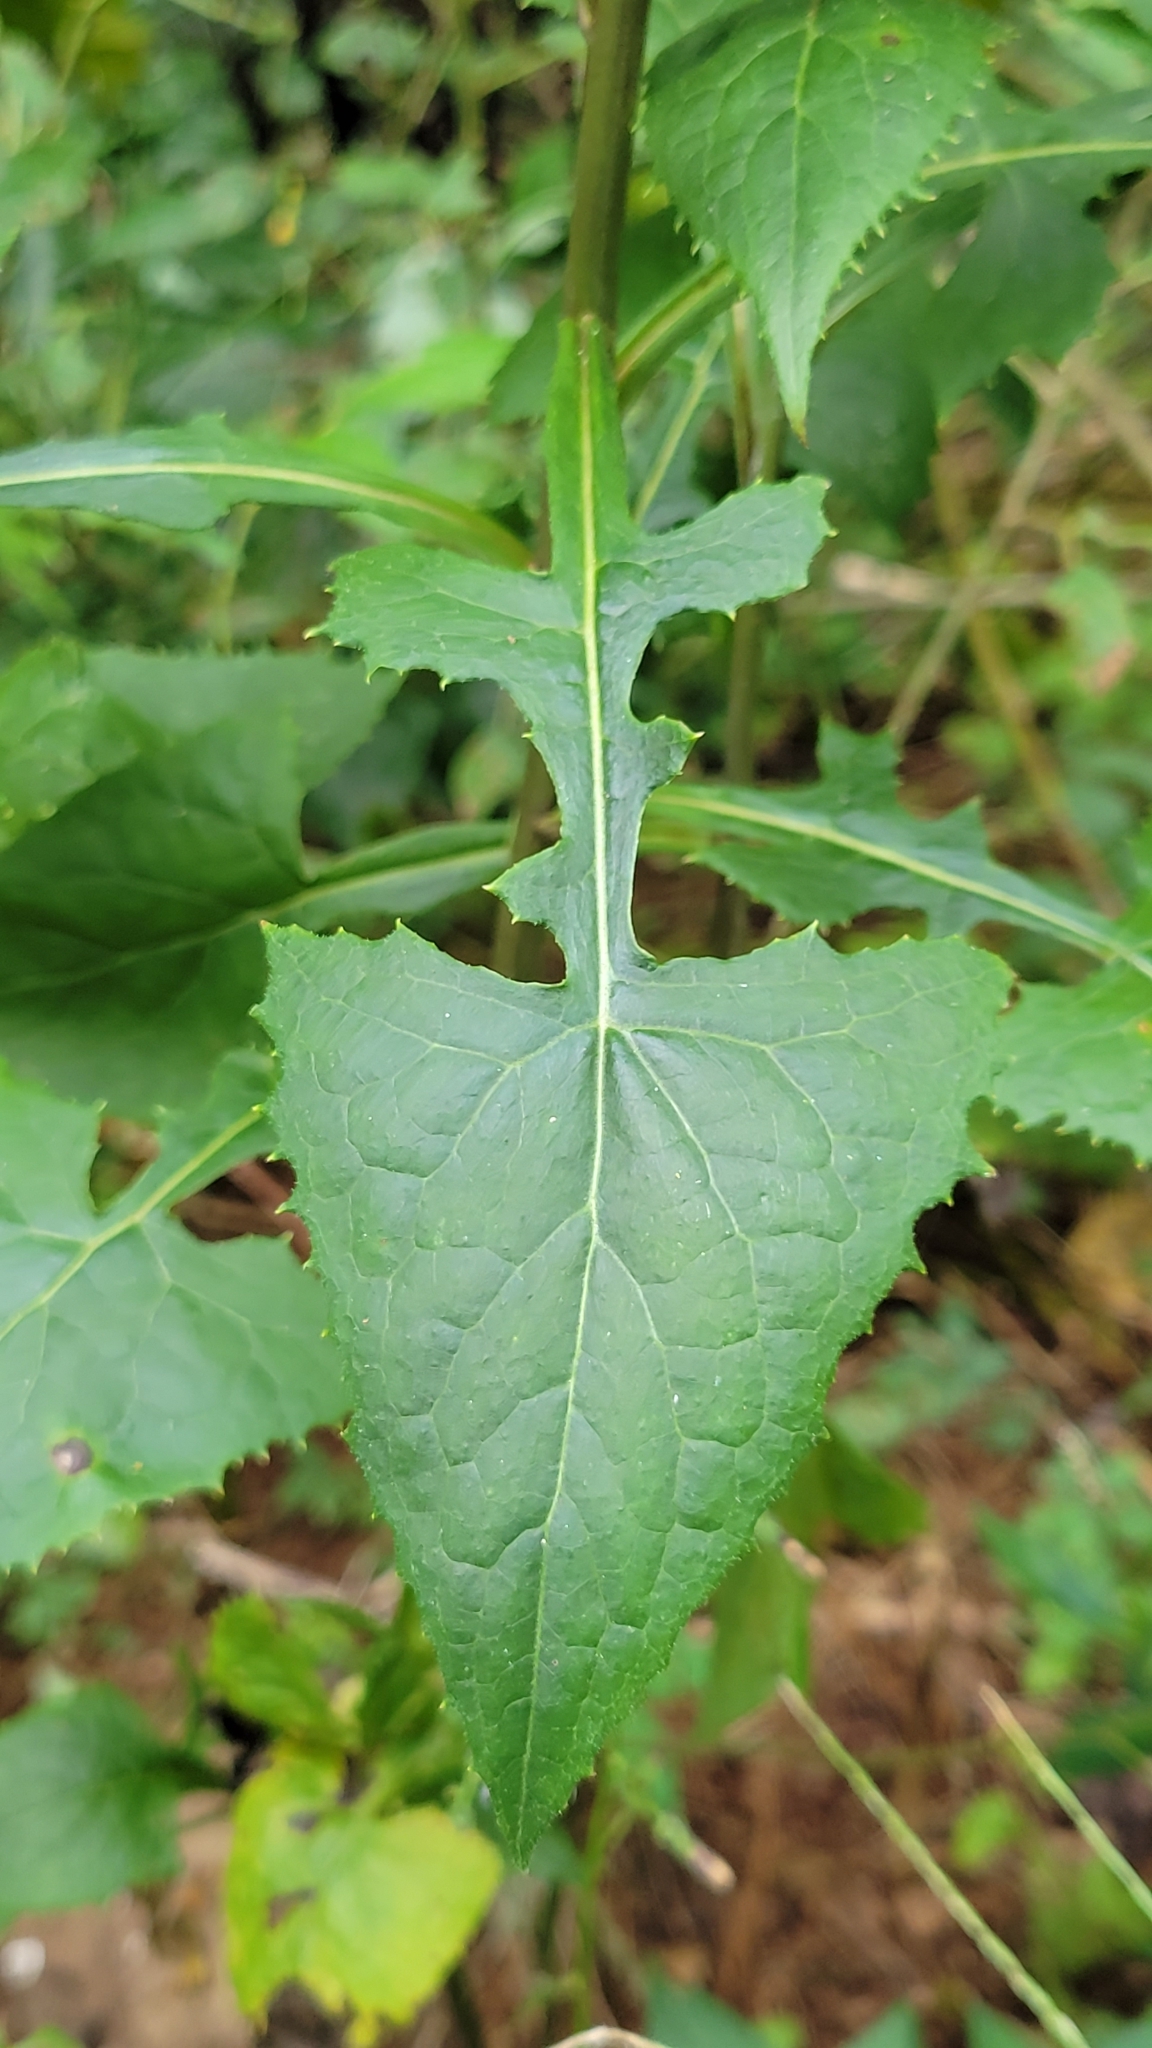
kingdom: Plantae
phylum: Tracheophyta
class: Magnoliopsida
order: Asterales
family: Asteraceae
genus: Lactuca
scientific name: Lactuca floridana
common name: Woodland lettuce
